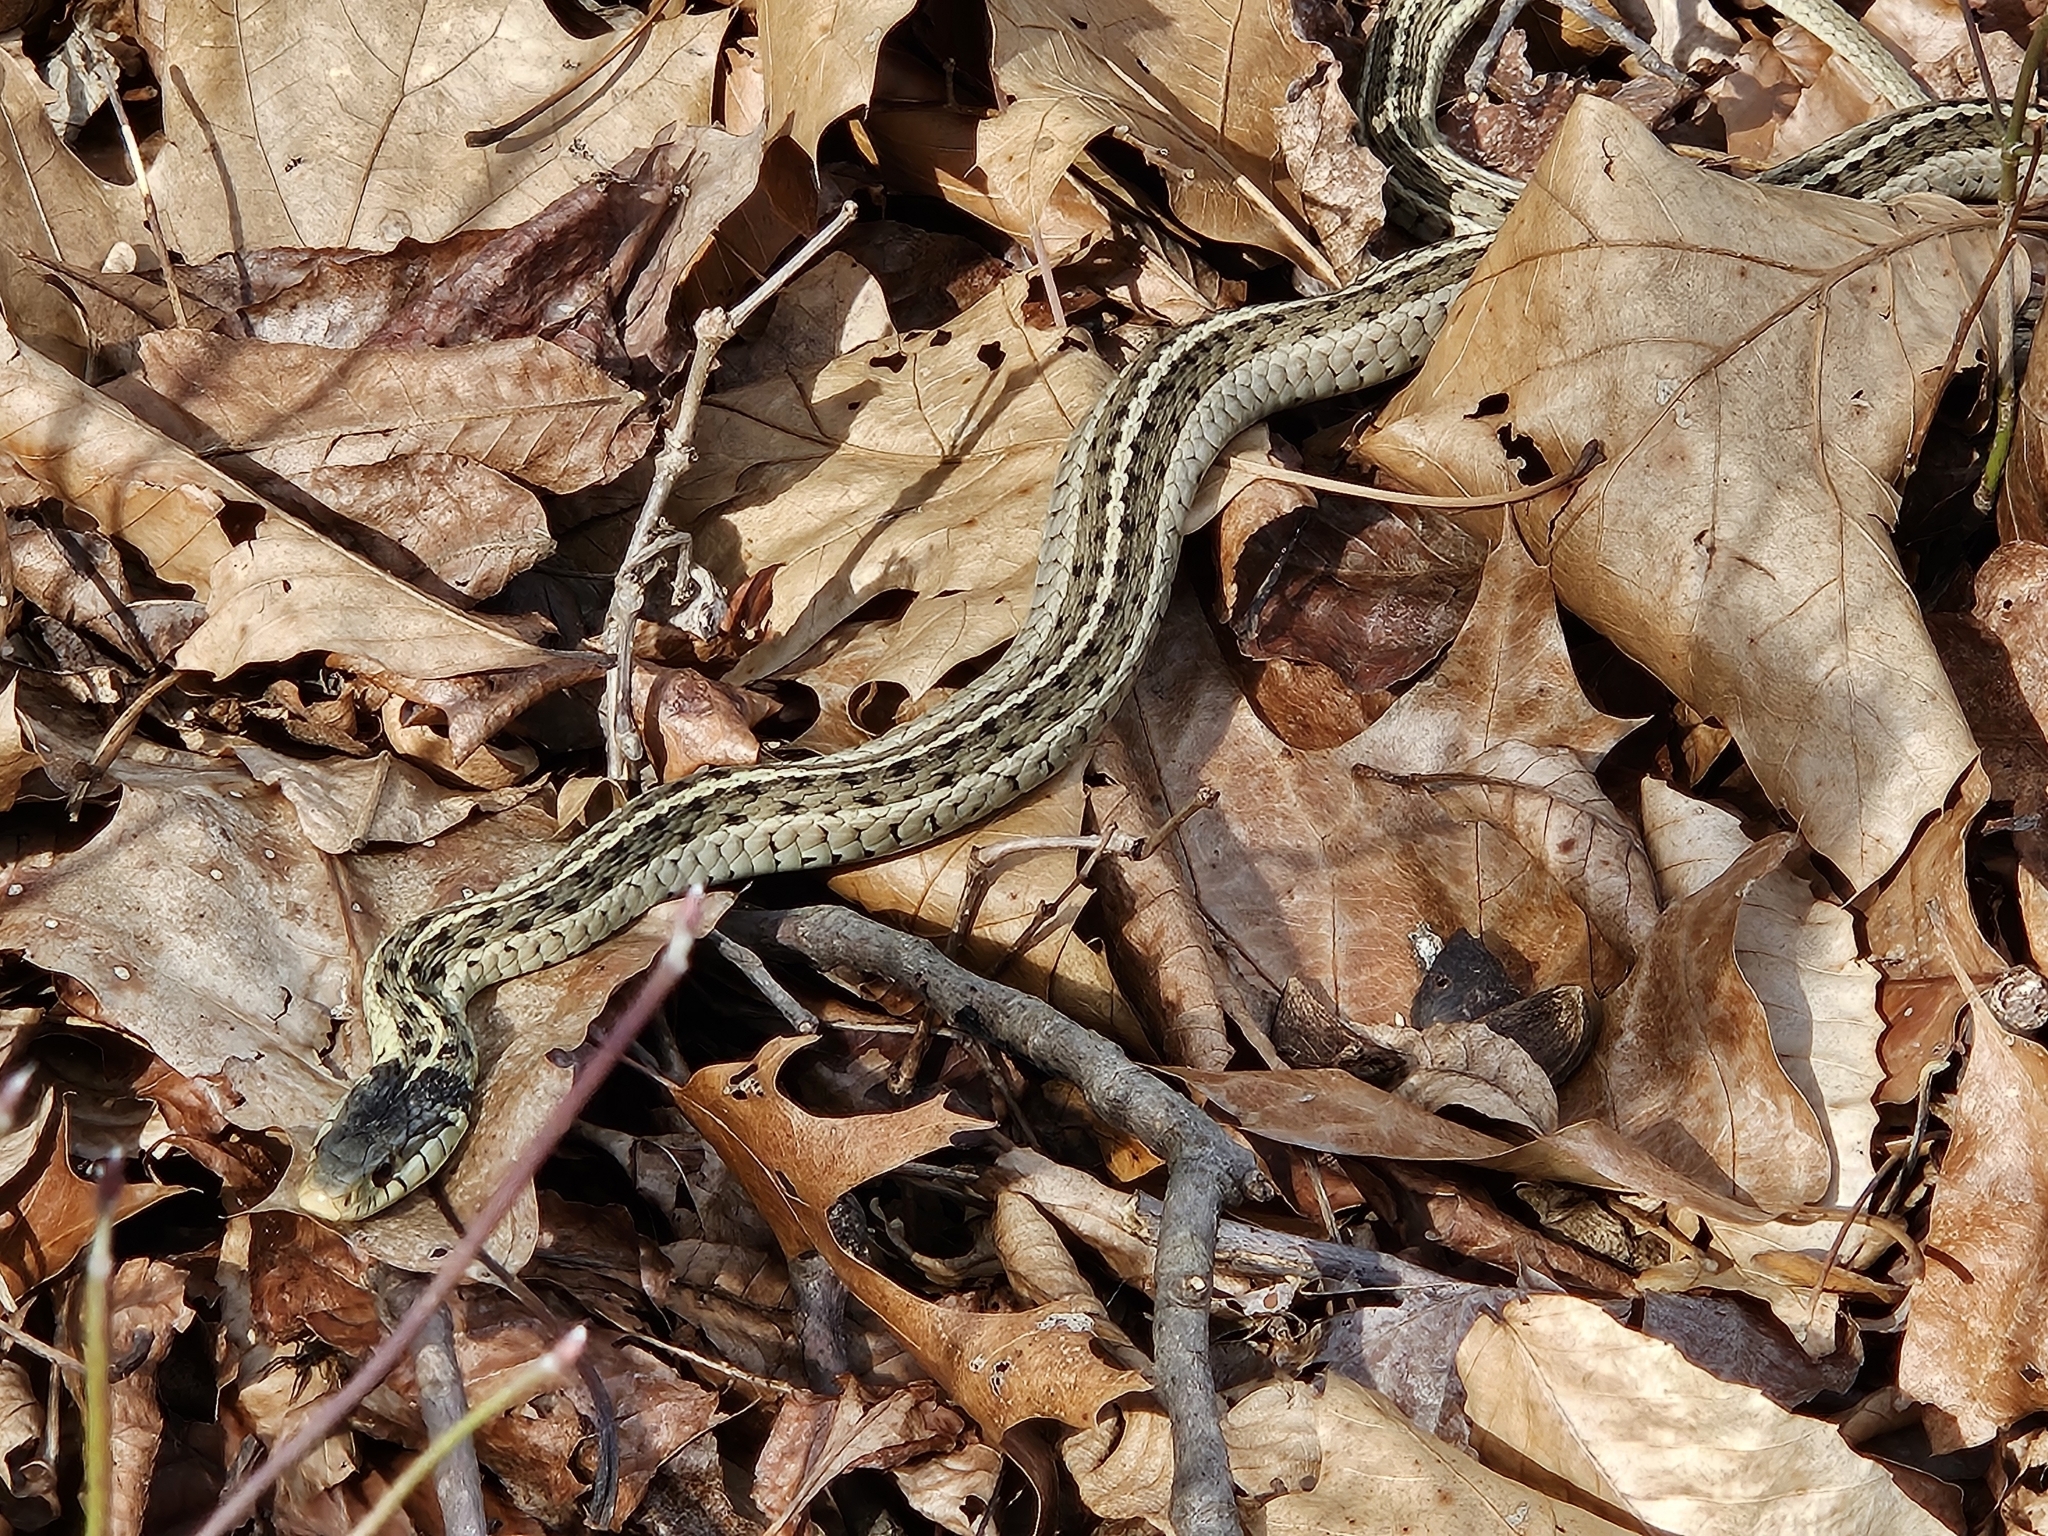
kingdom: Animalia
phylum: Chordata
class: Squamata
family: Colubridae
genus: Thamnophis
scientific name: Thamnophis sirtalis
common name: Common garter snake
